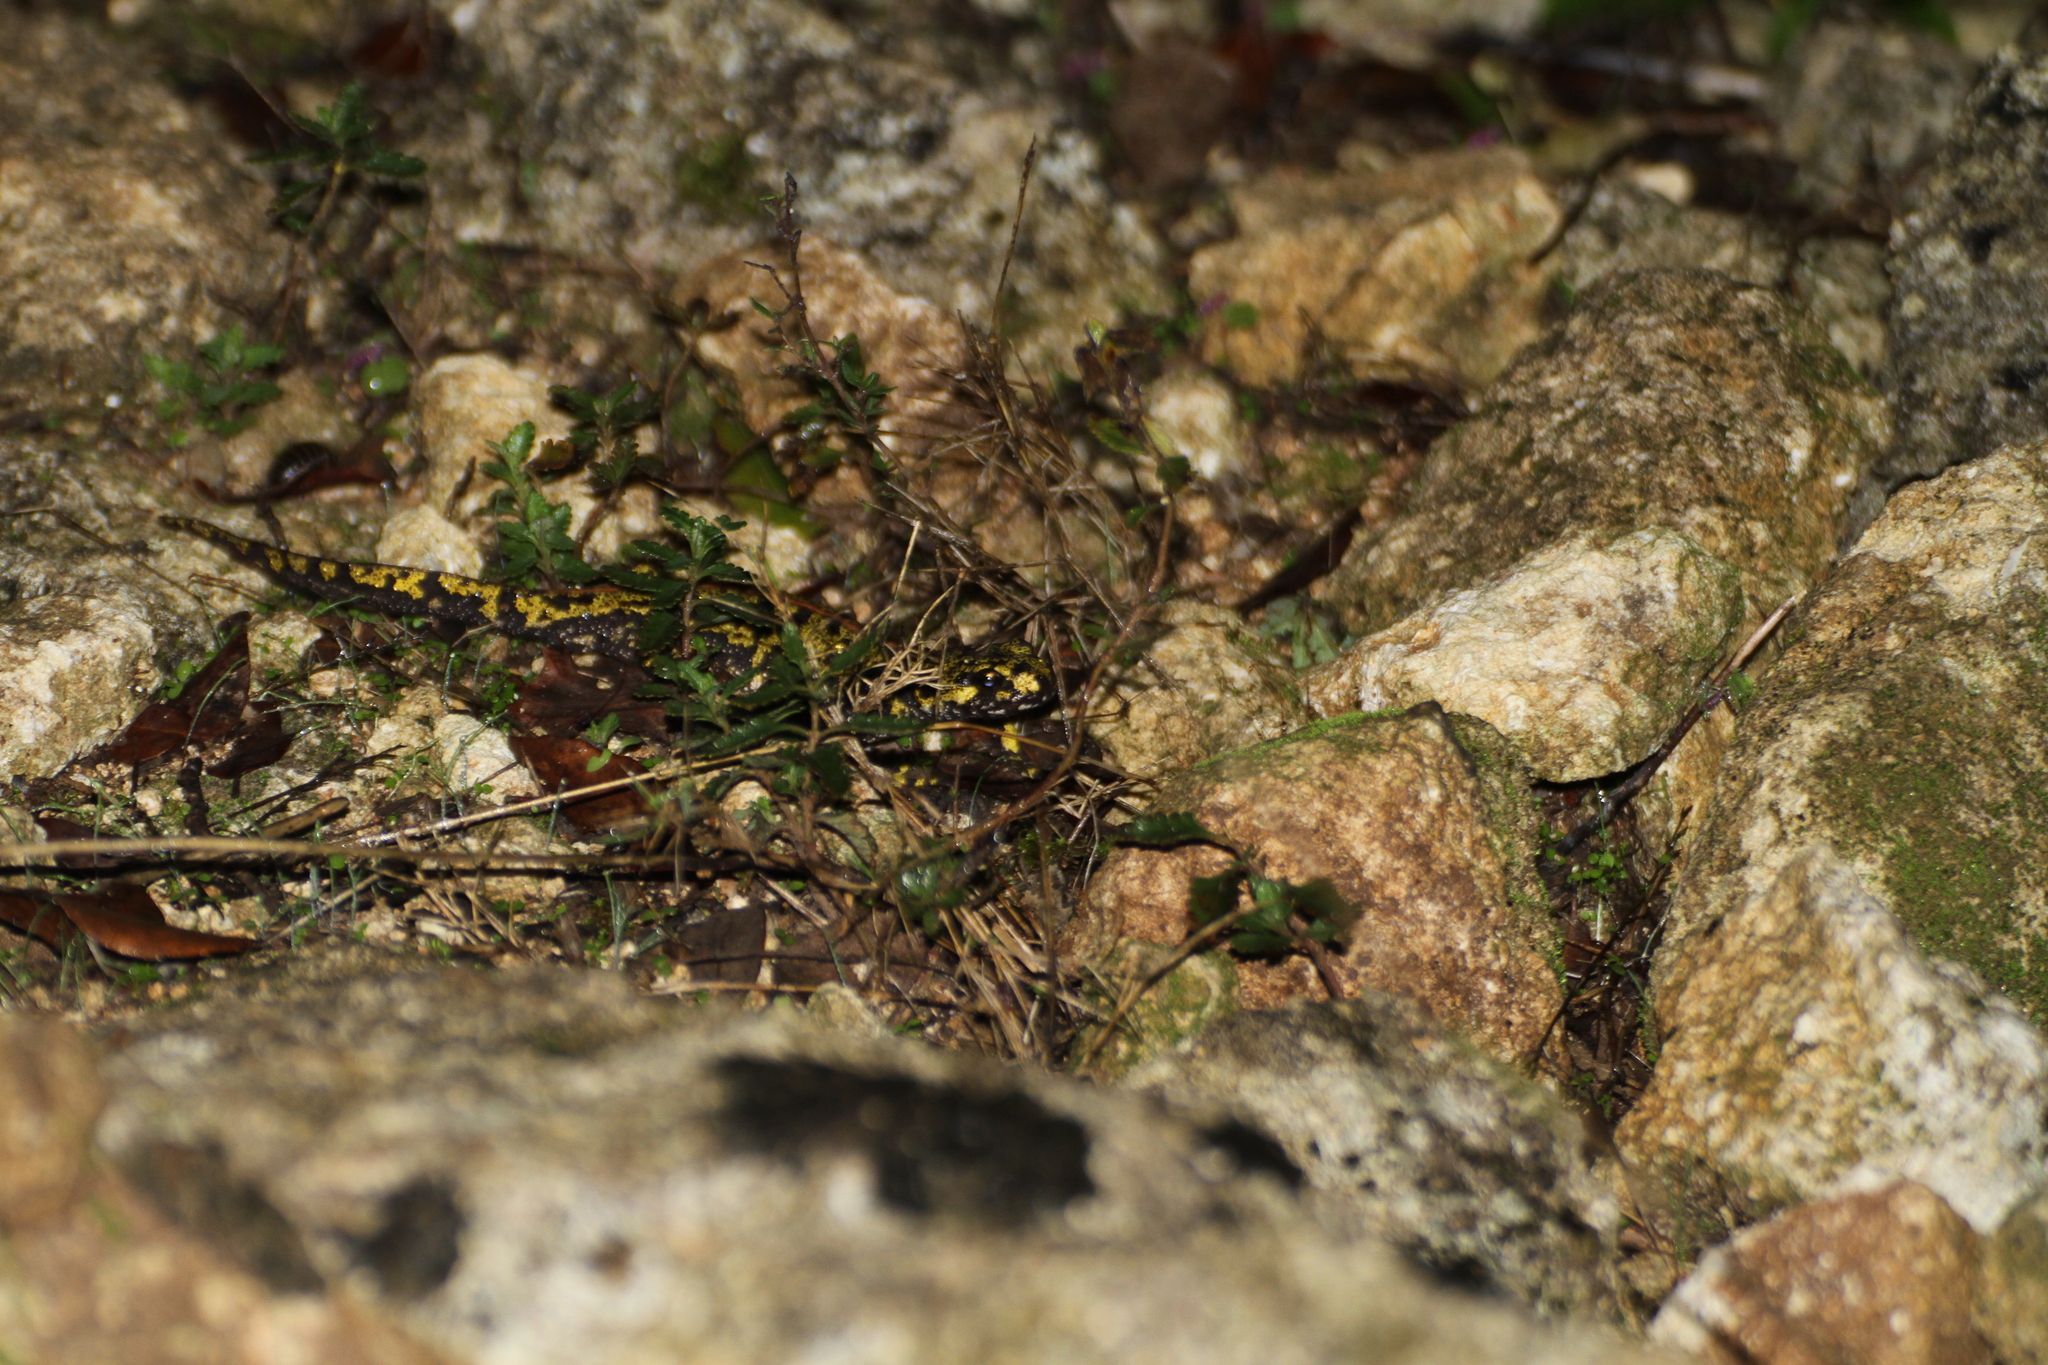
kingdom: Animalia
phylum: Chordata
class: Amphibia
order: Caudata
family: Salamandridae
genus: Triturus
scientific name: Triturus marmoratus
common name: Marbled newt
